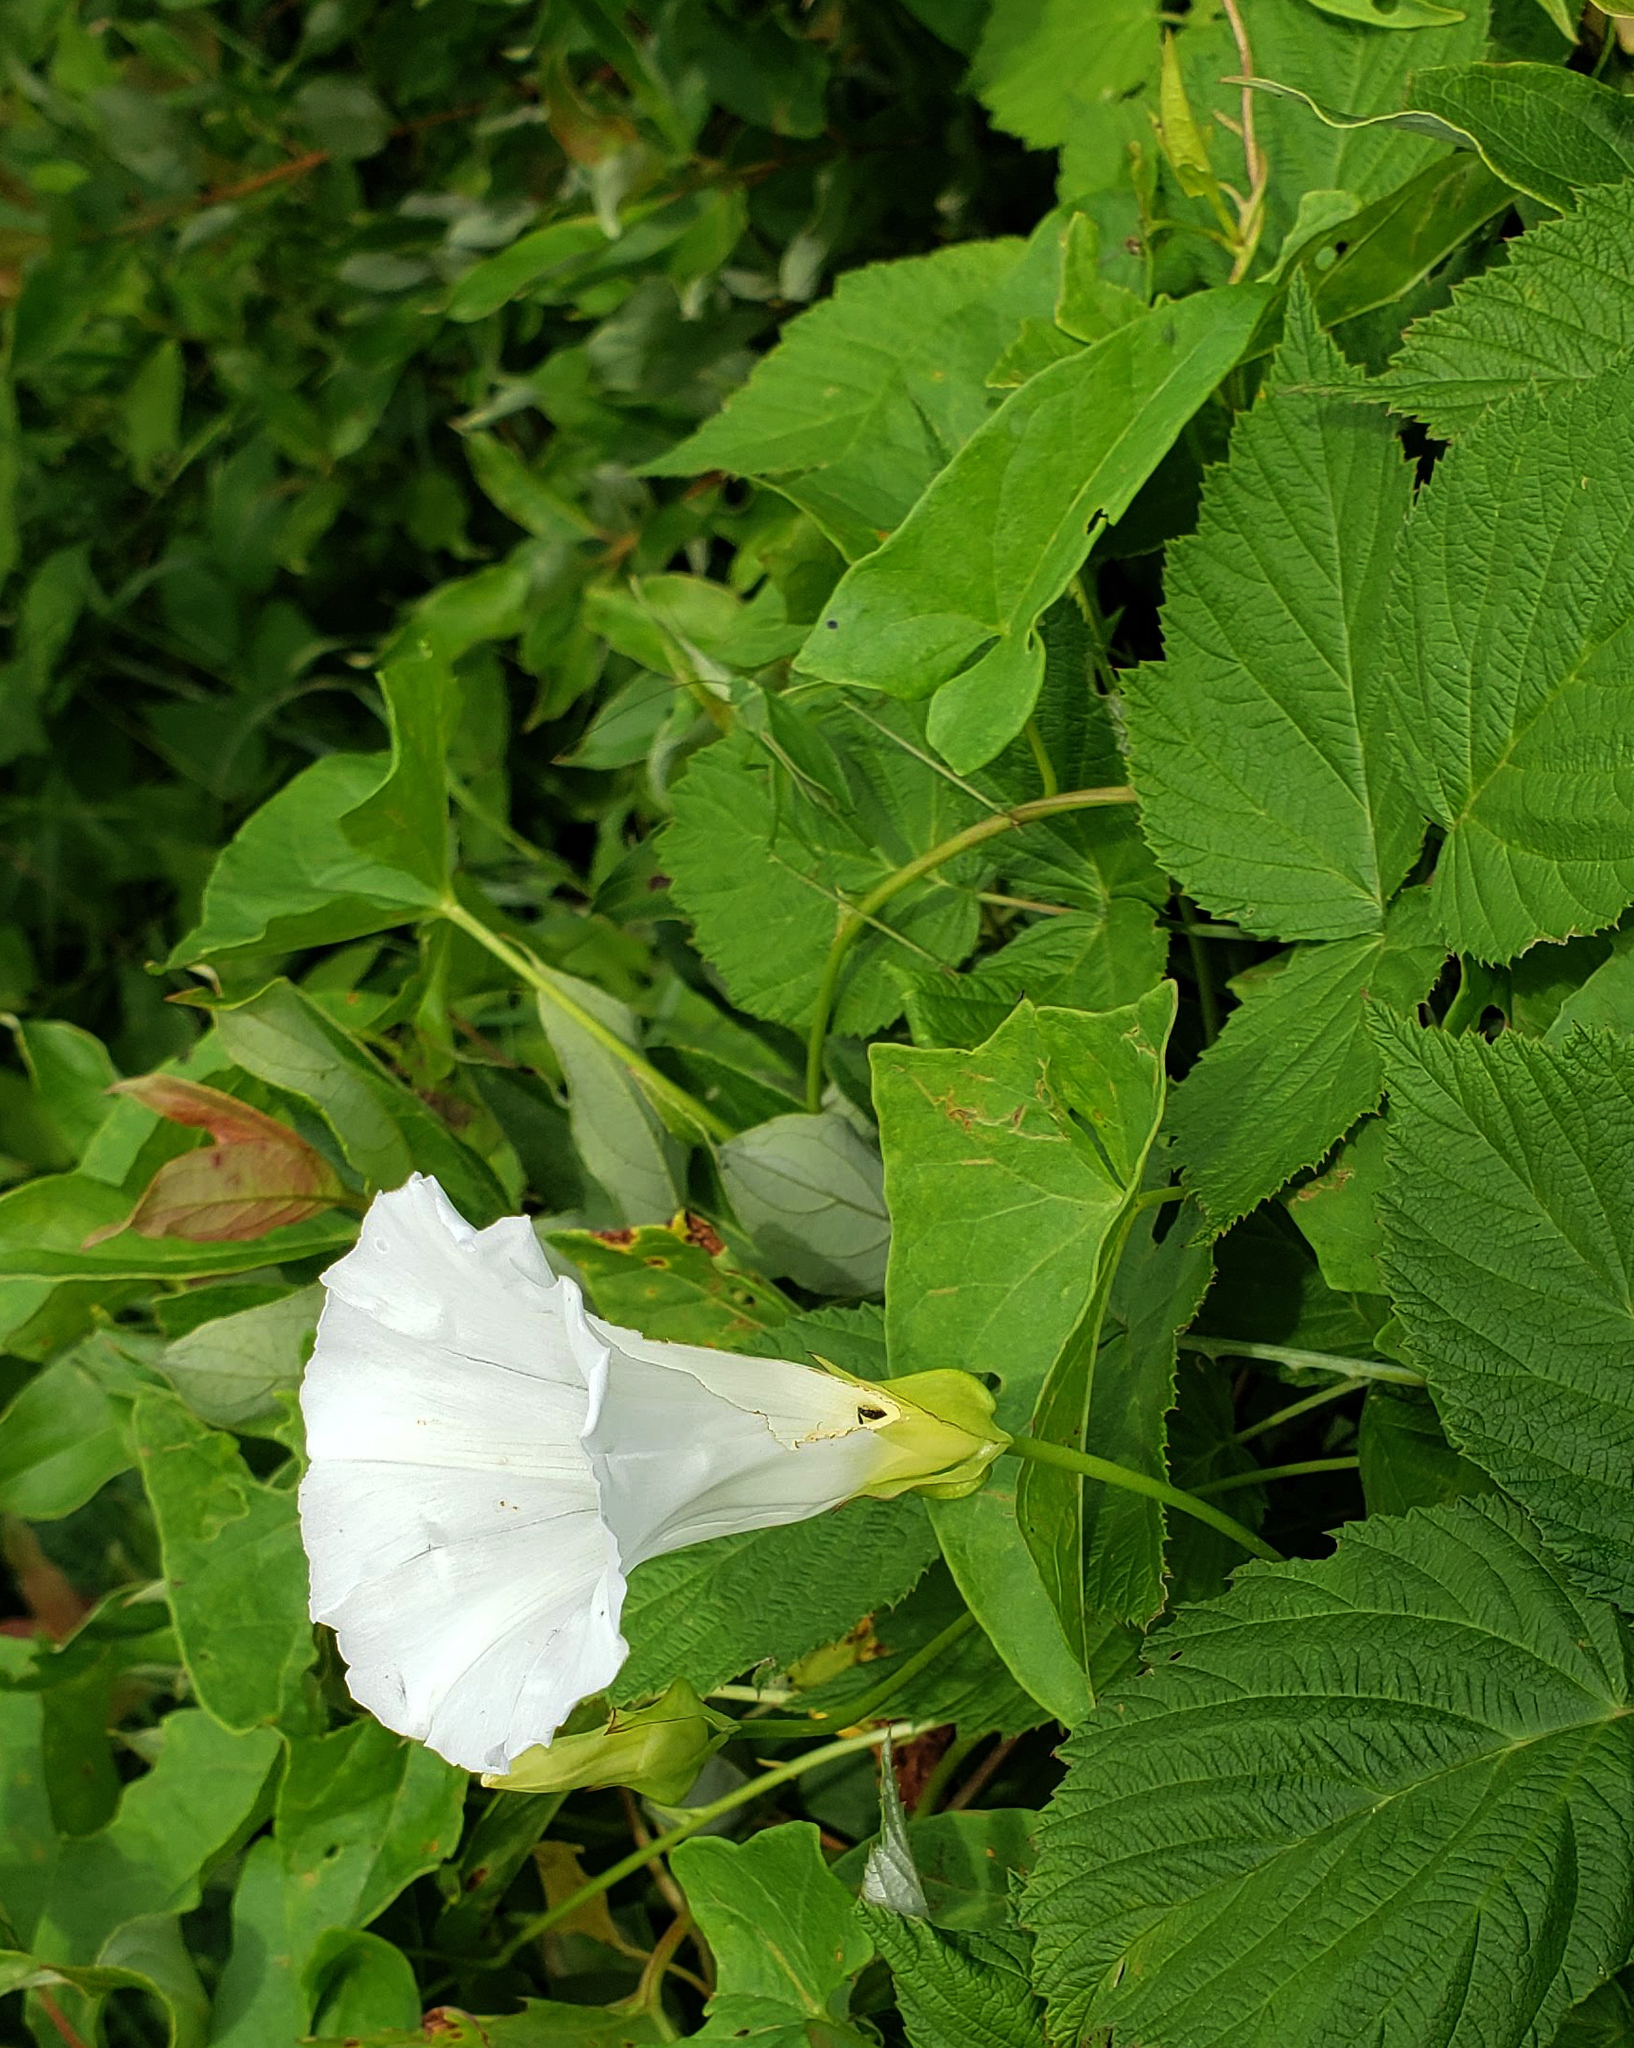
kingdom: Plantae
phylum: Tracheophyta
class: Magnoliopsida
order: Solanales
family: Convolvulaceae
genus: Calystegia
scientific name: Calystegia sepium
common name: Hedge bindweed
